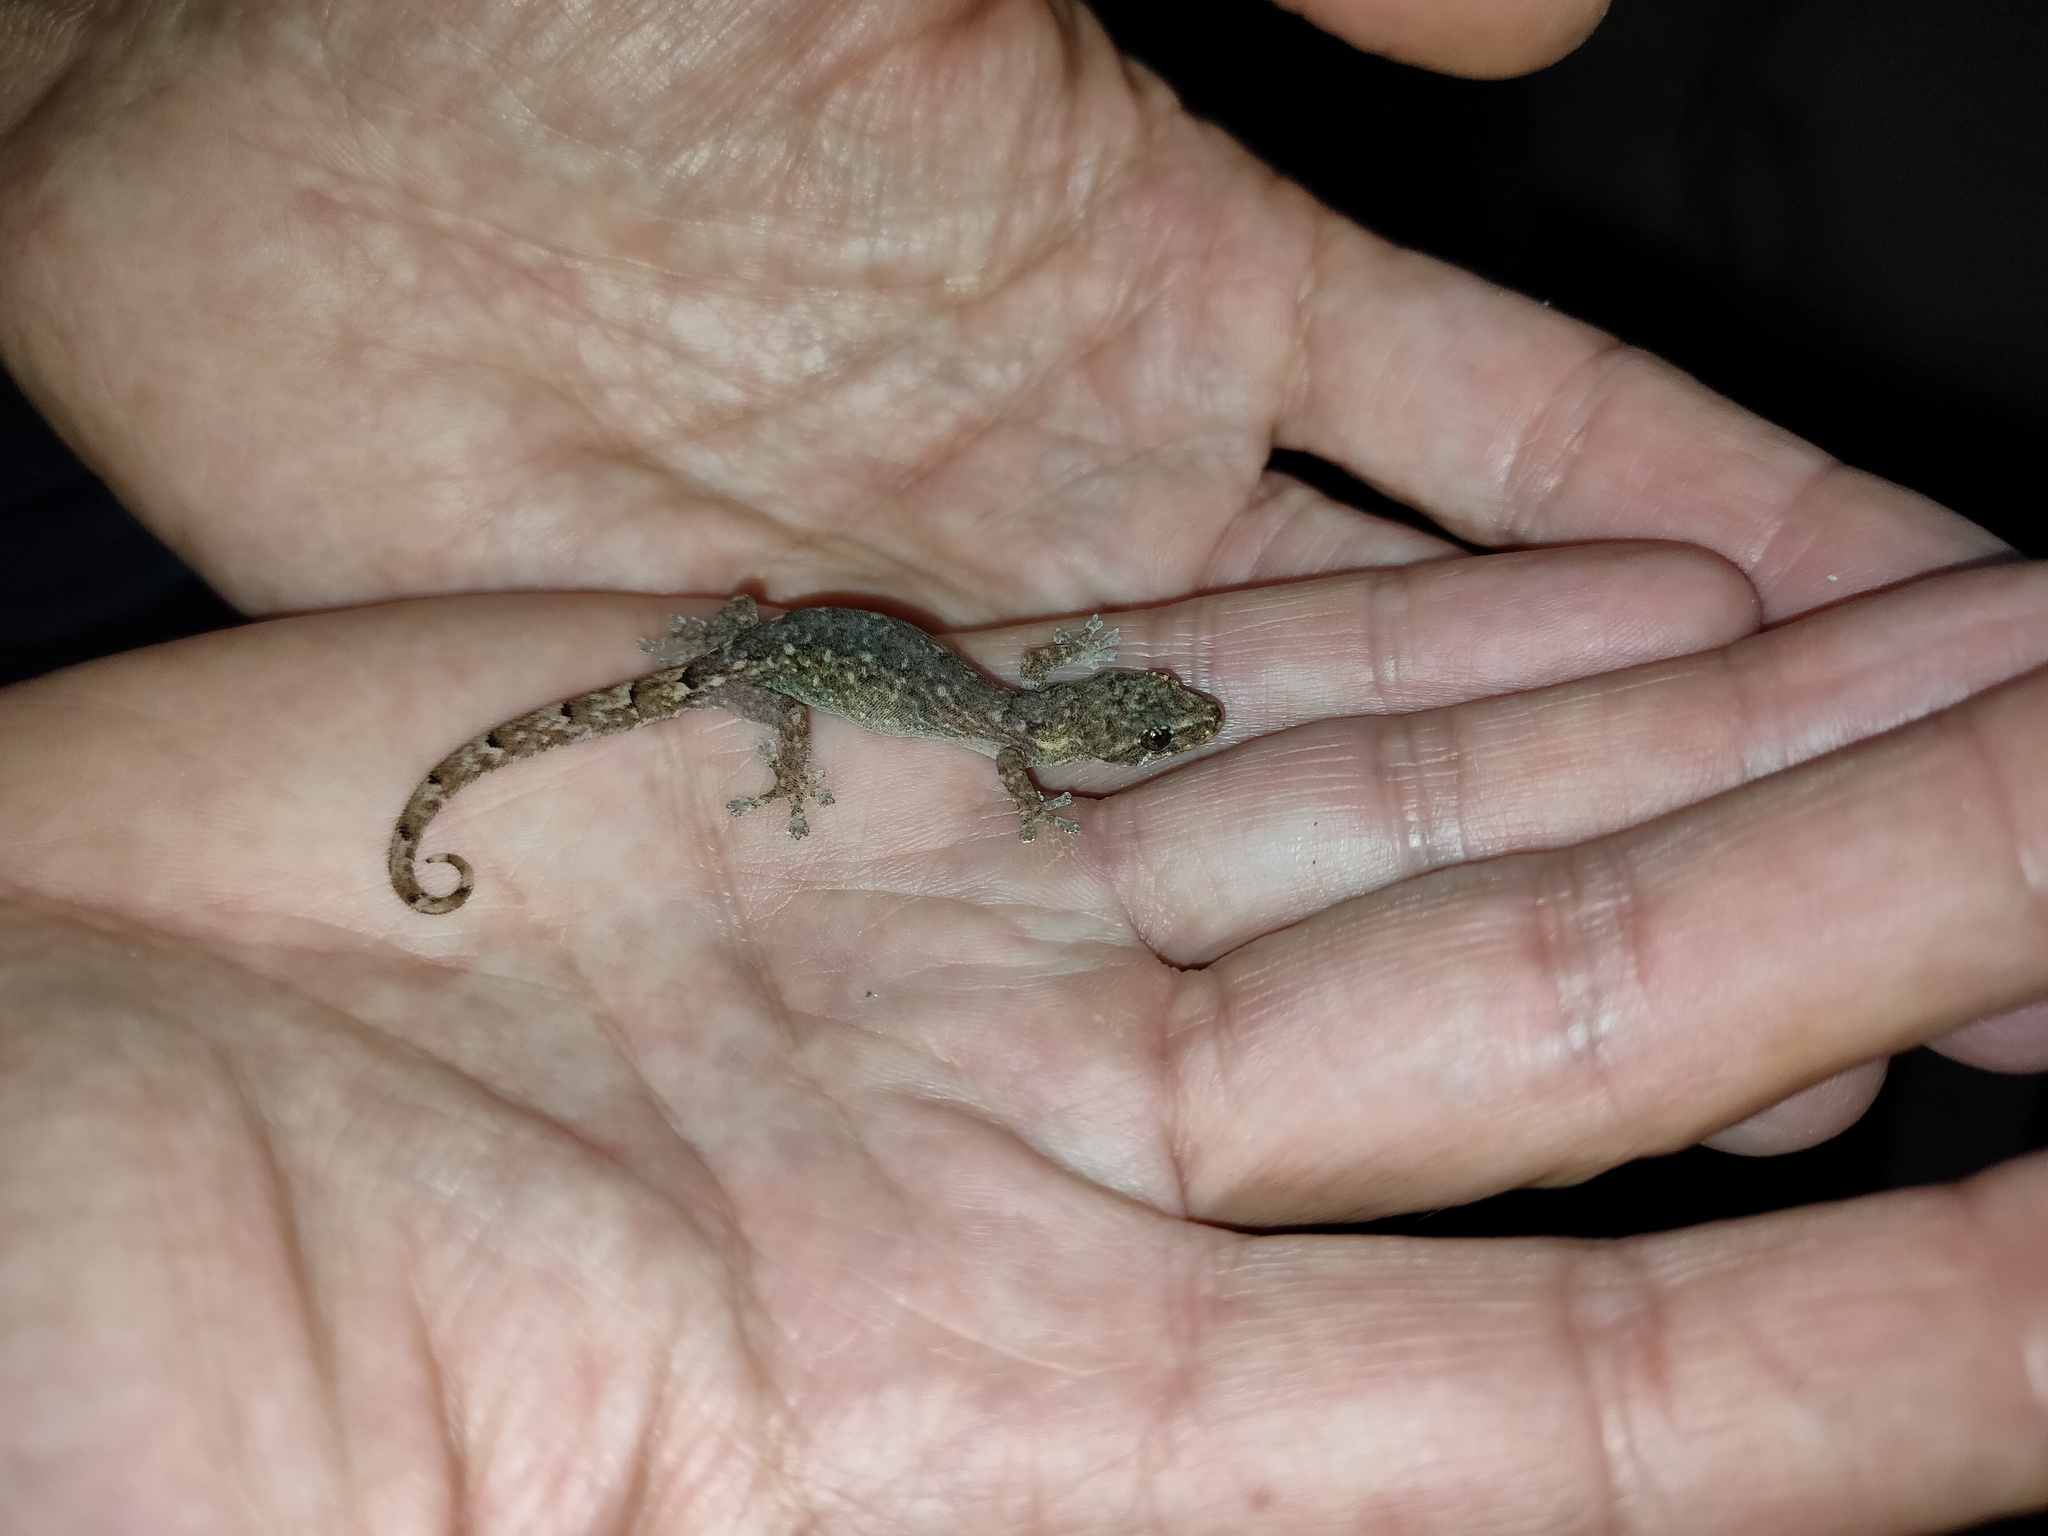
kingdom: Animalia
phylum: Chordata
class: Squamata
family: Gekkonidae
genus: Hemiphyllodactylus
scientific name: Hemiphyllodactylus chiangmaiensis
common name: Chiang mai dwarf gecko
